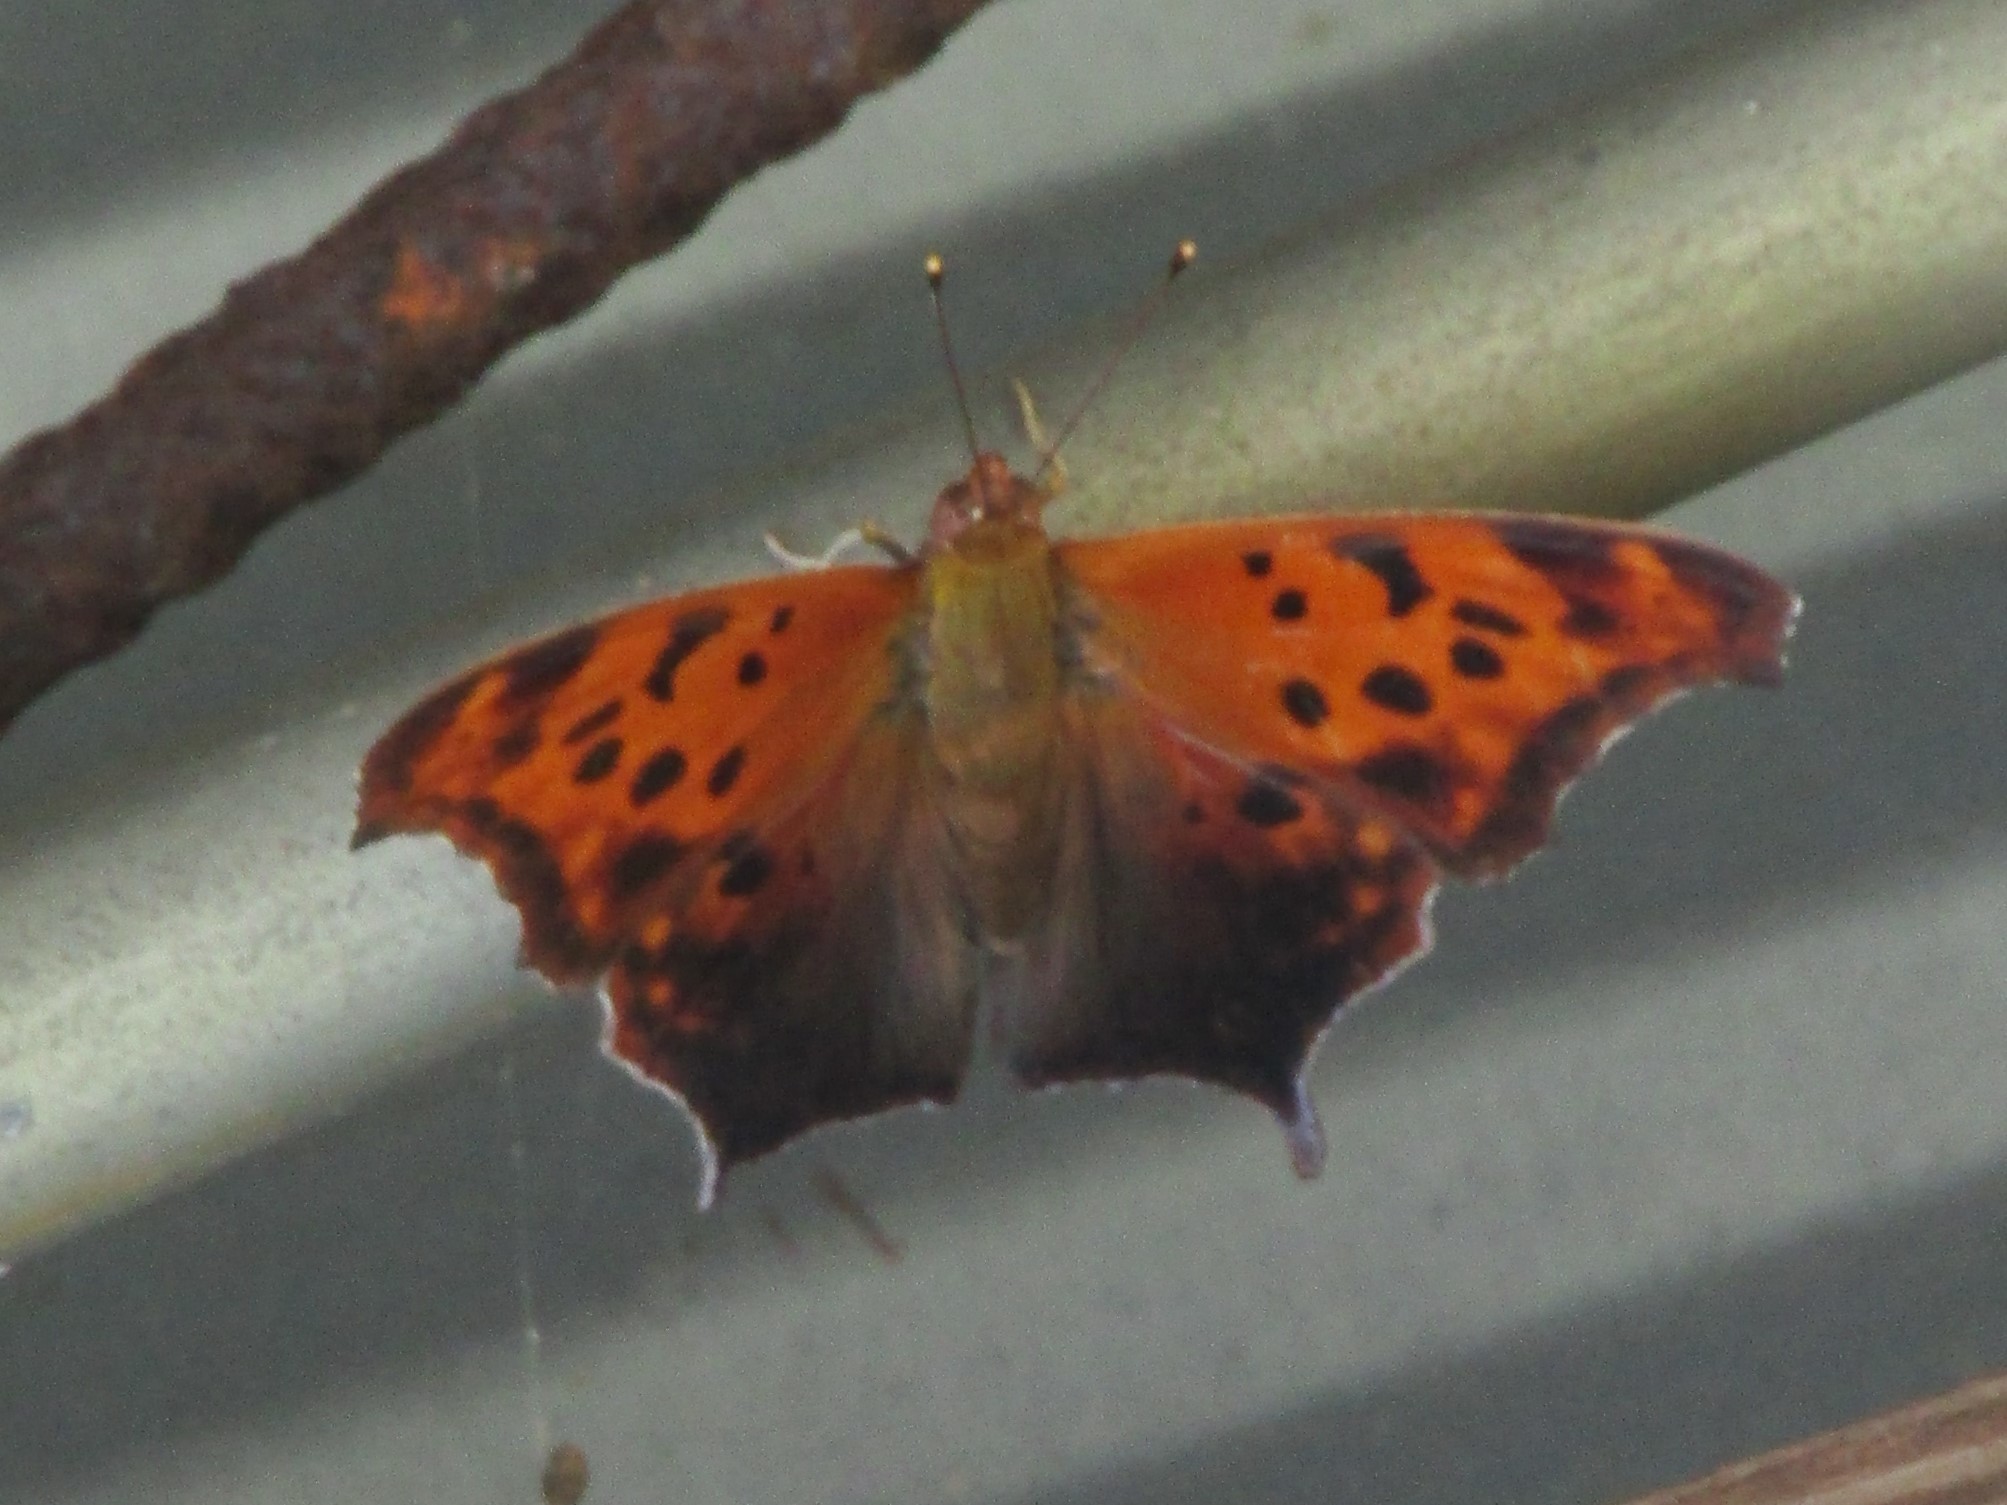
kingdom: Animalia
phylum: Arthropoda
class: Insecta
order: Lepidoptera
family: Nymphalidae
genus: Polygonia
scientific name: Polygonia interrogationis
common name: Question mark
